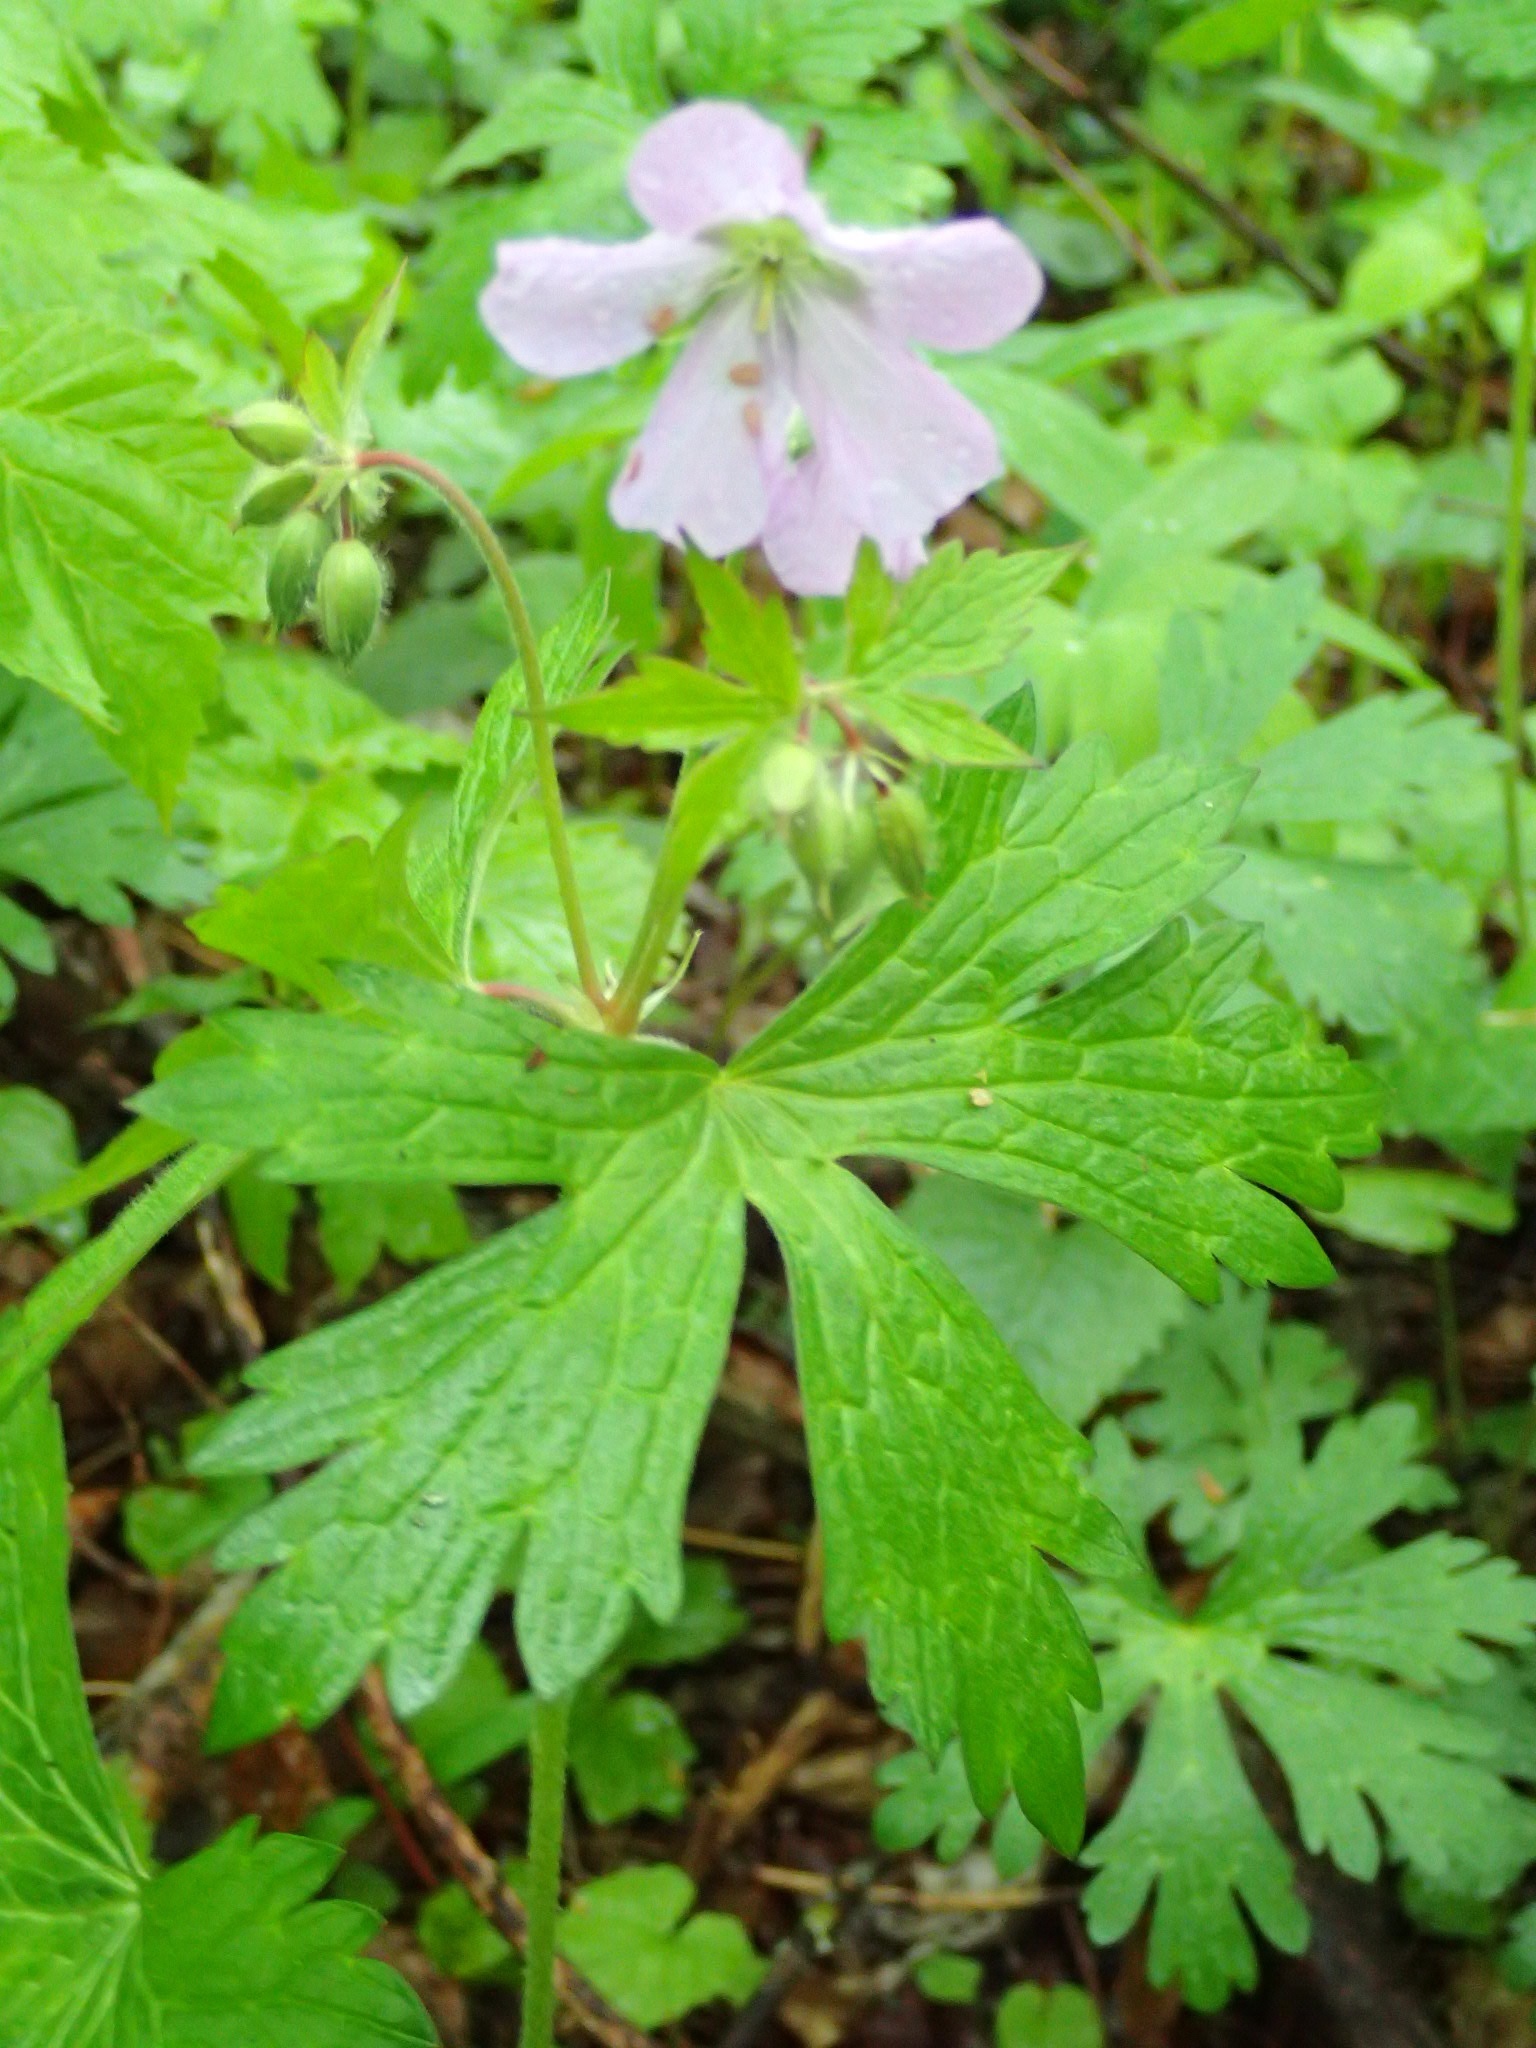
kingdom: Plantae
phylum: Tracheophyta
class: Magnoliopsida
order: Geraniales
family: Geraniaceae
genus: Geranium
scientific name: Geranium maculatum
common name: Spotted geranium
